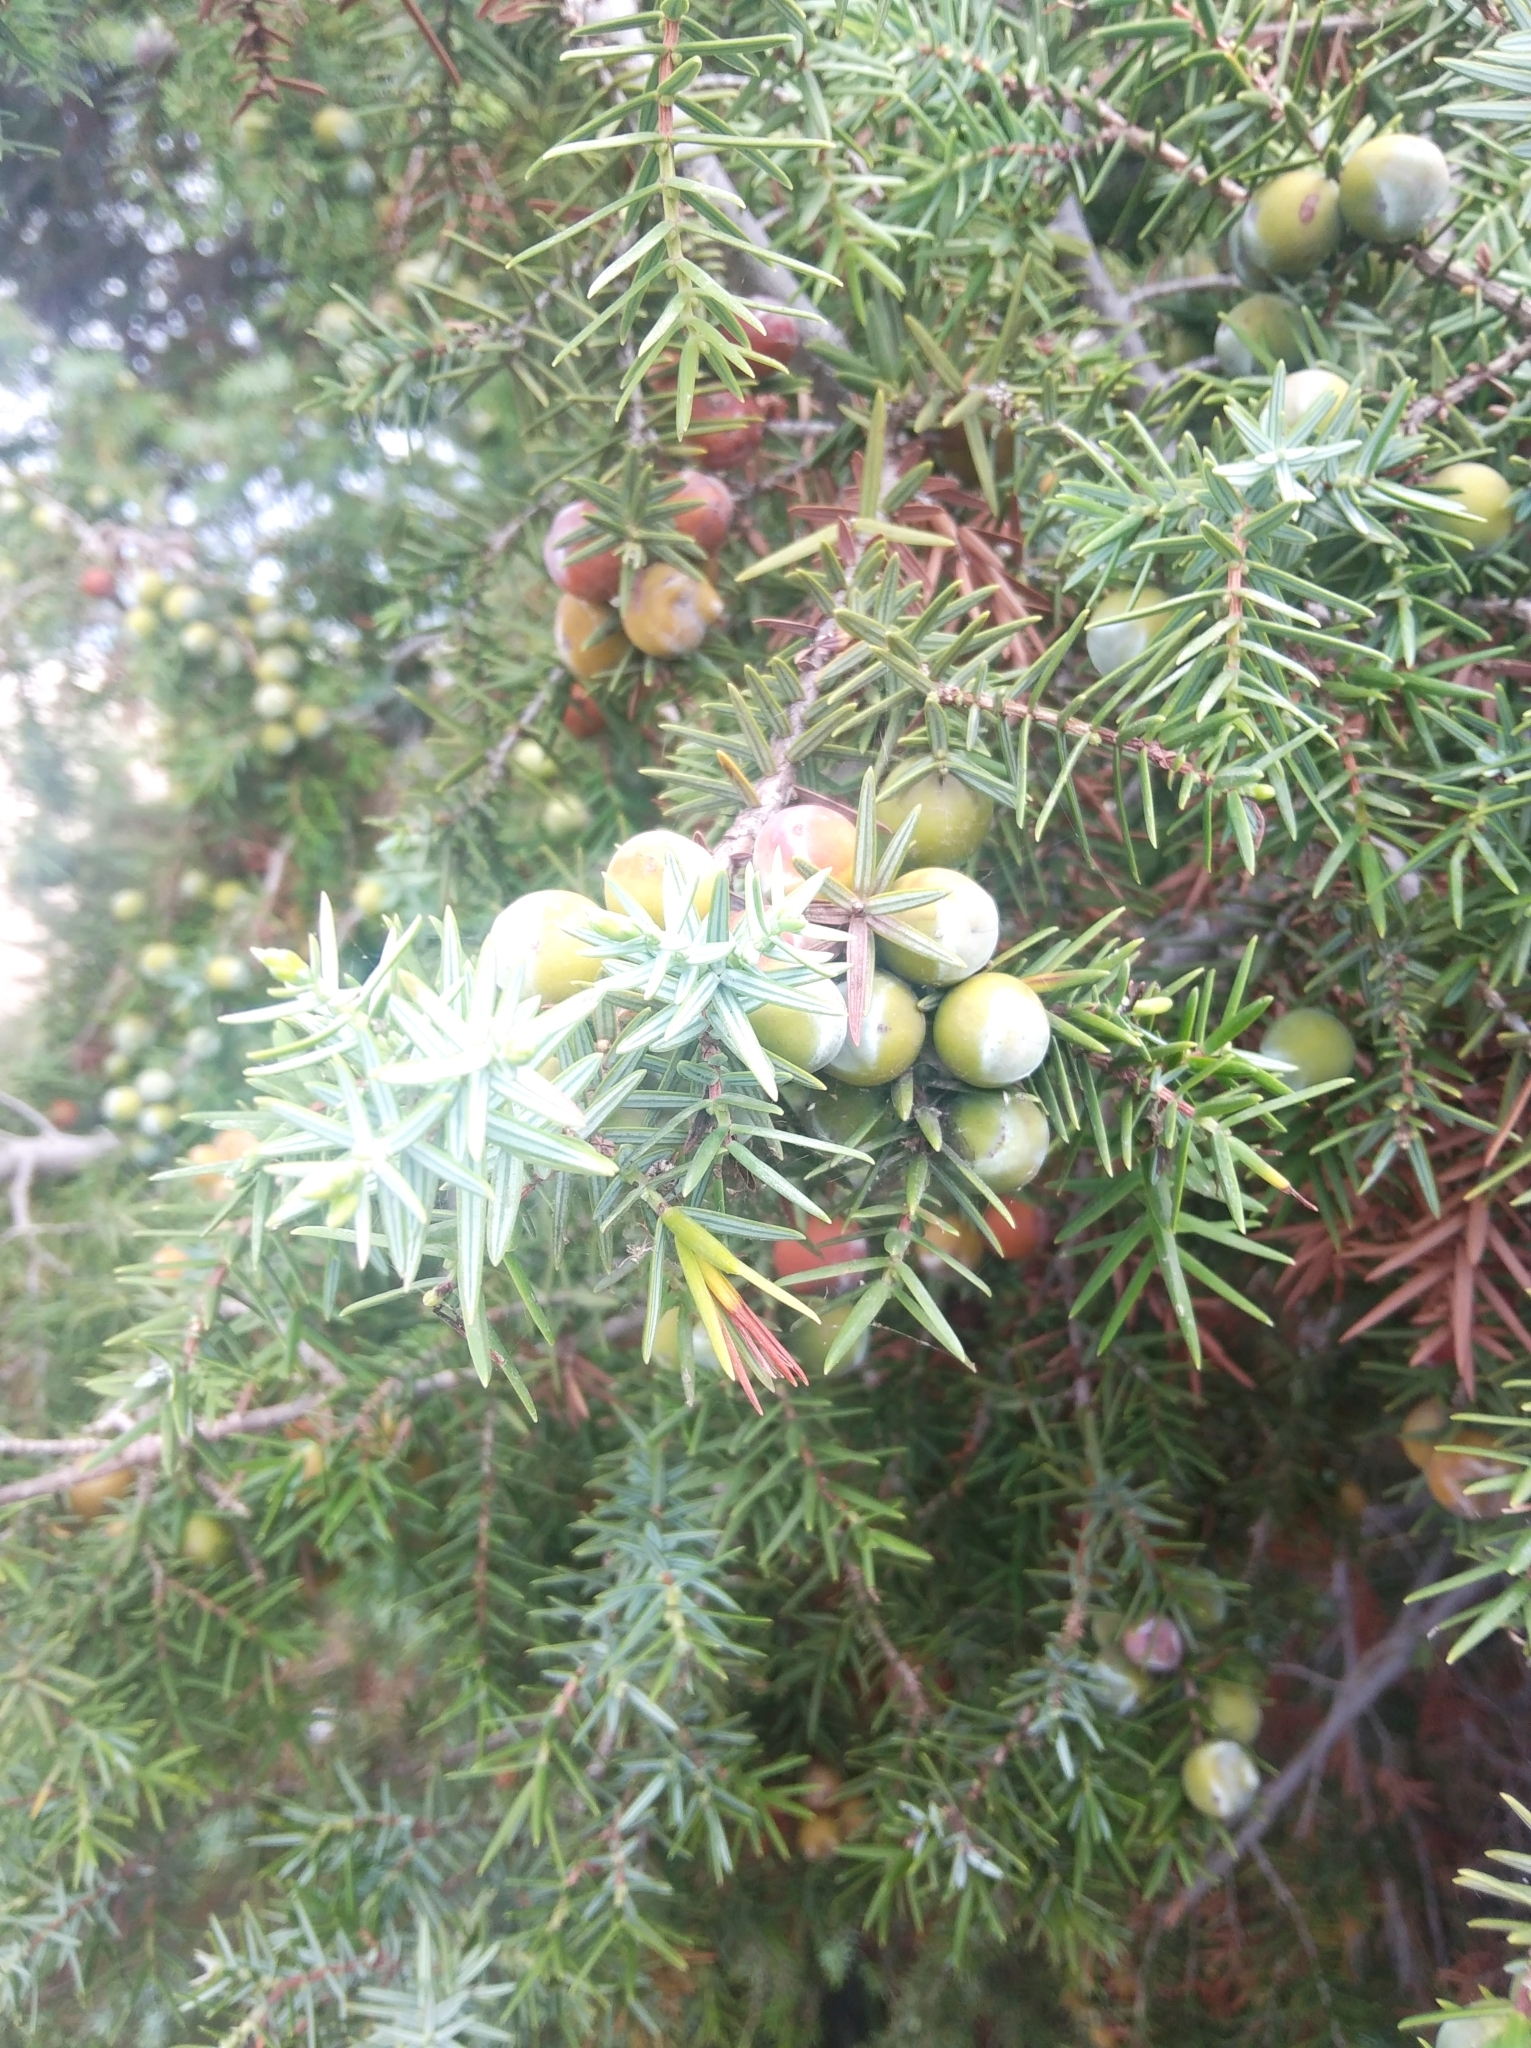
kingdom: Plantae
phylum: Tracheophyta
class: Pinopsida
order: Pinales
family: Cupressaceae
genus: Juniperus
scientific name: Juniperus oxycedrus
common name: Prickly juniper
